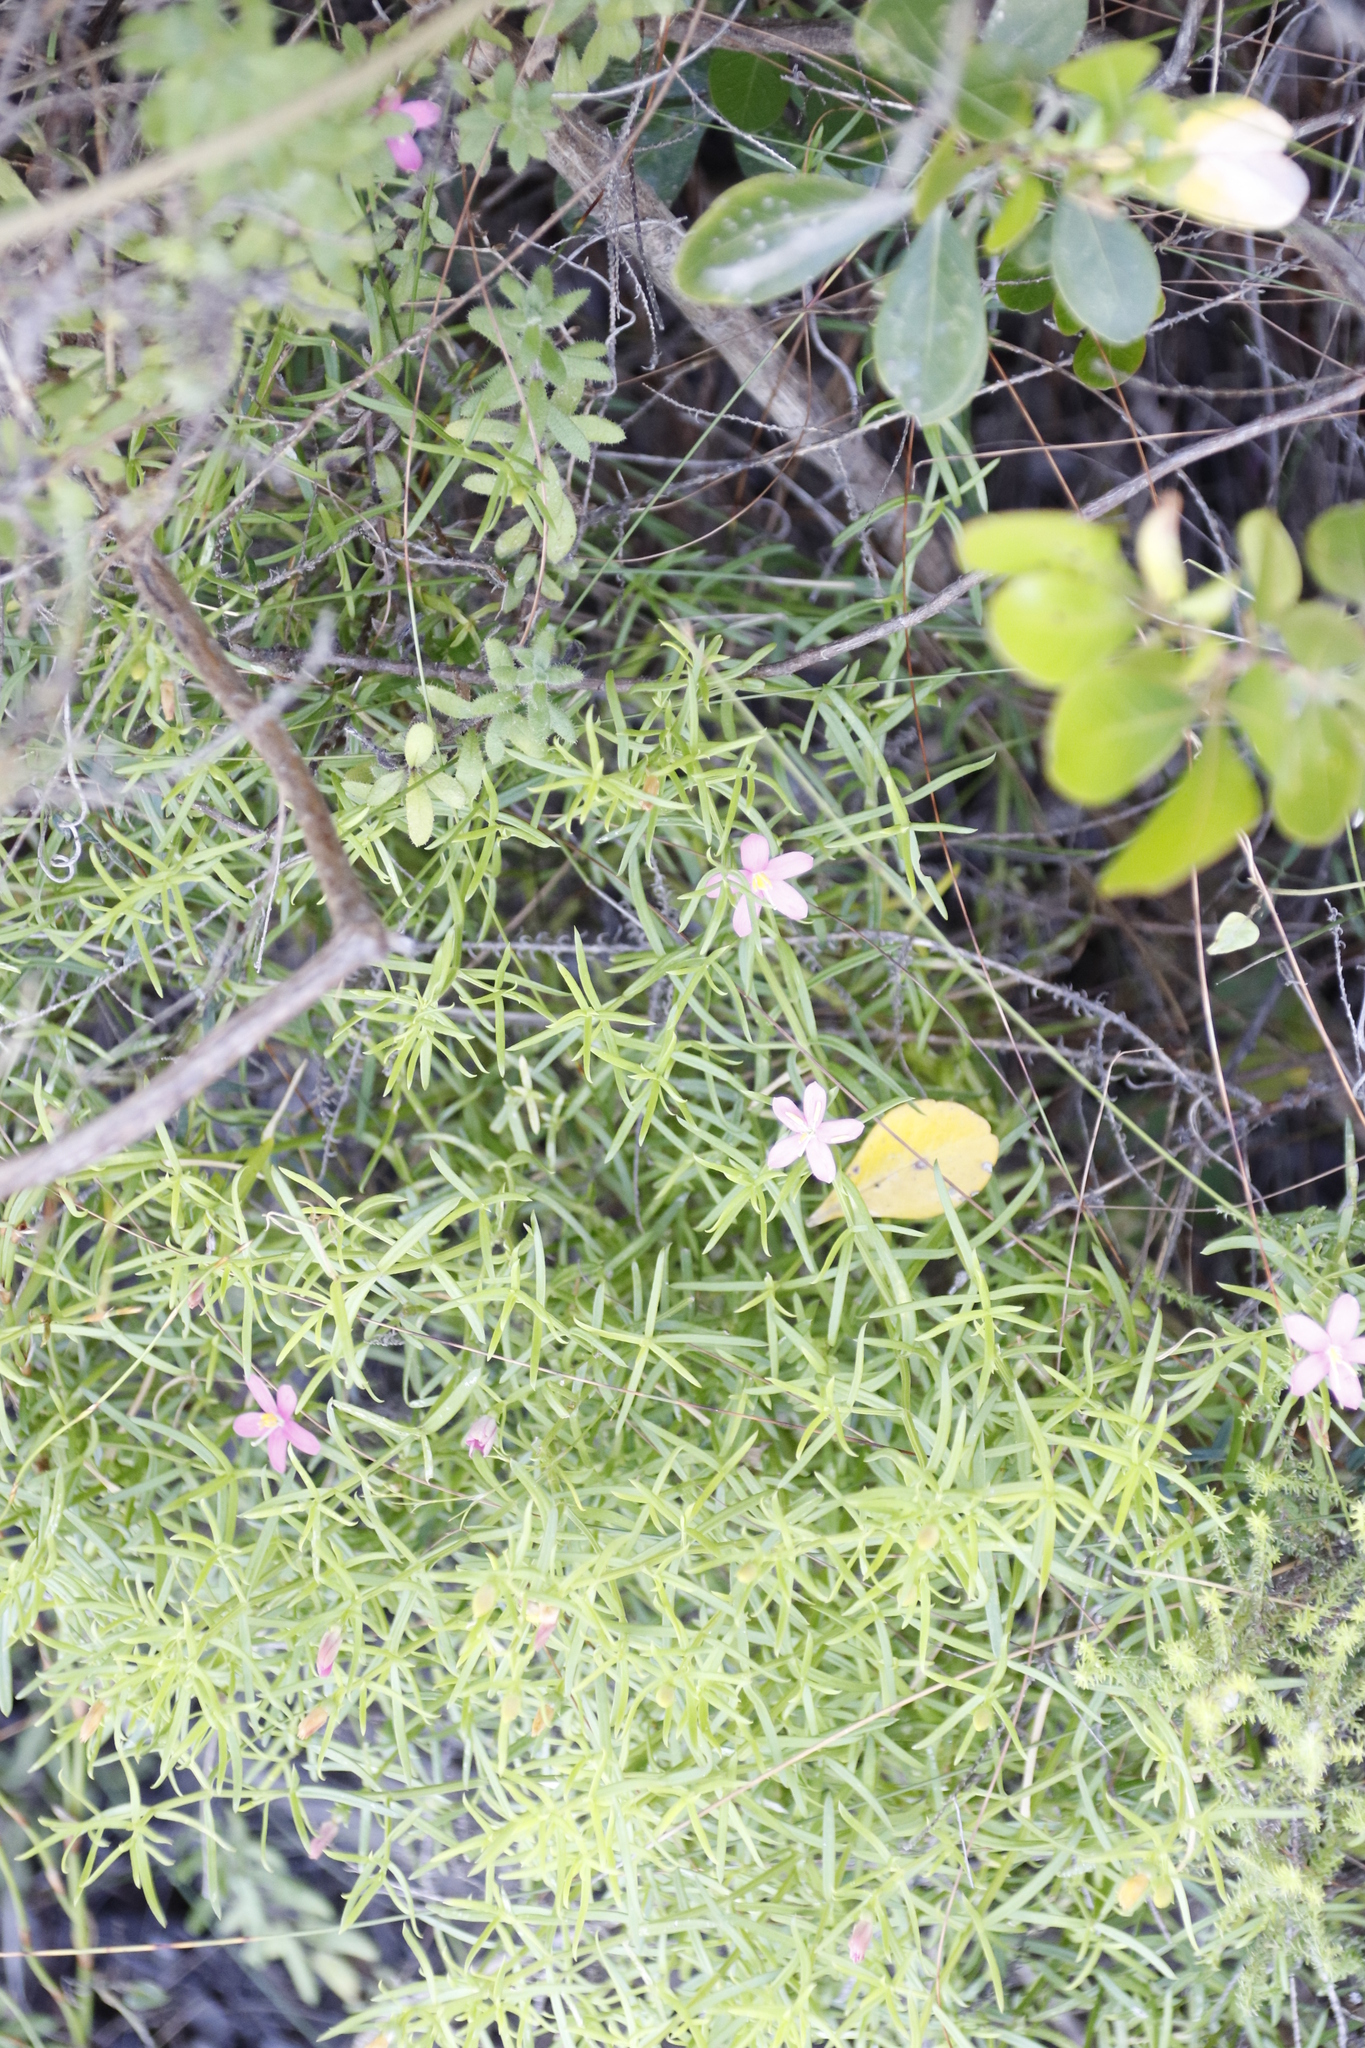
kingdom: Plantae
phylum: Tracheophyta
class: Magnoliopsida
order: Gentianales
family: Gentianaceae
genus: Chironia
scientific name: Chironia baccifera
